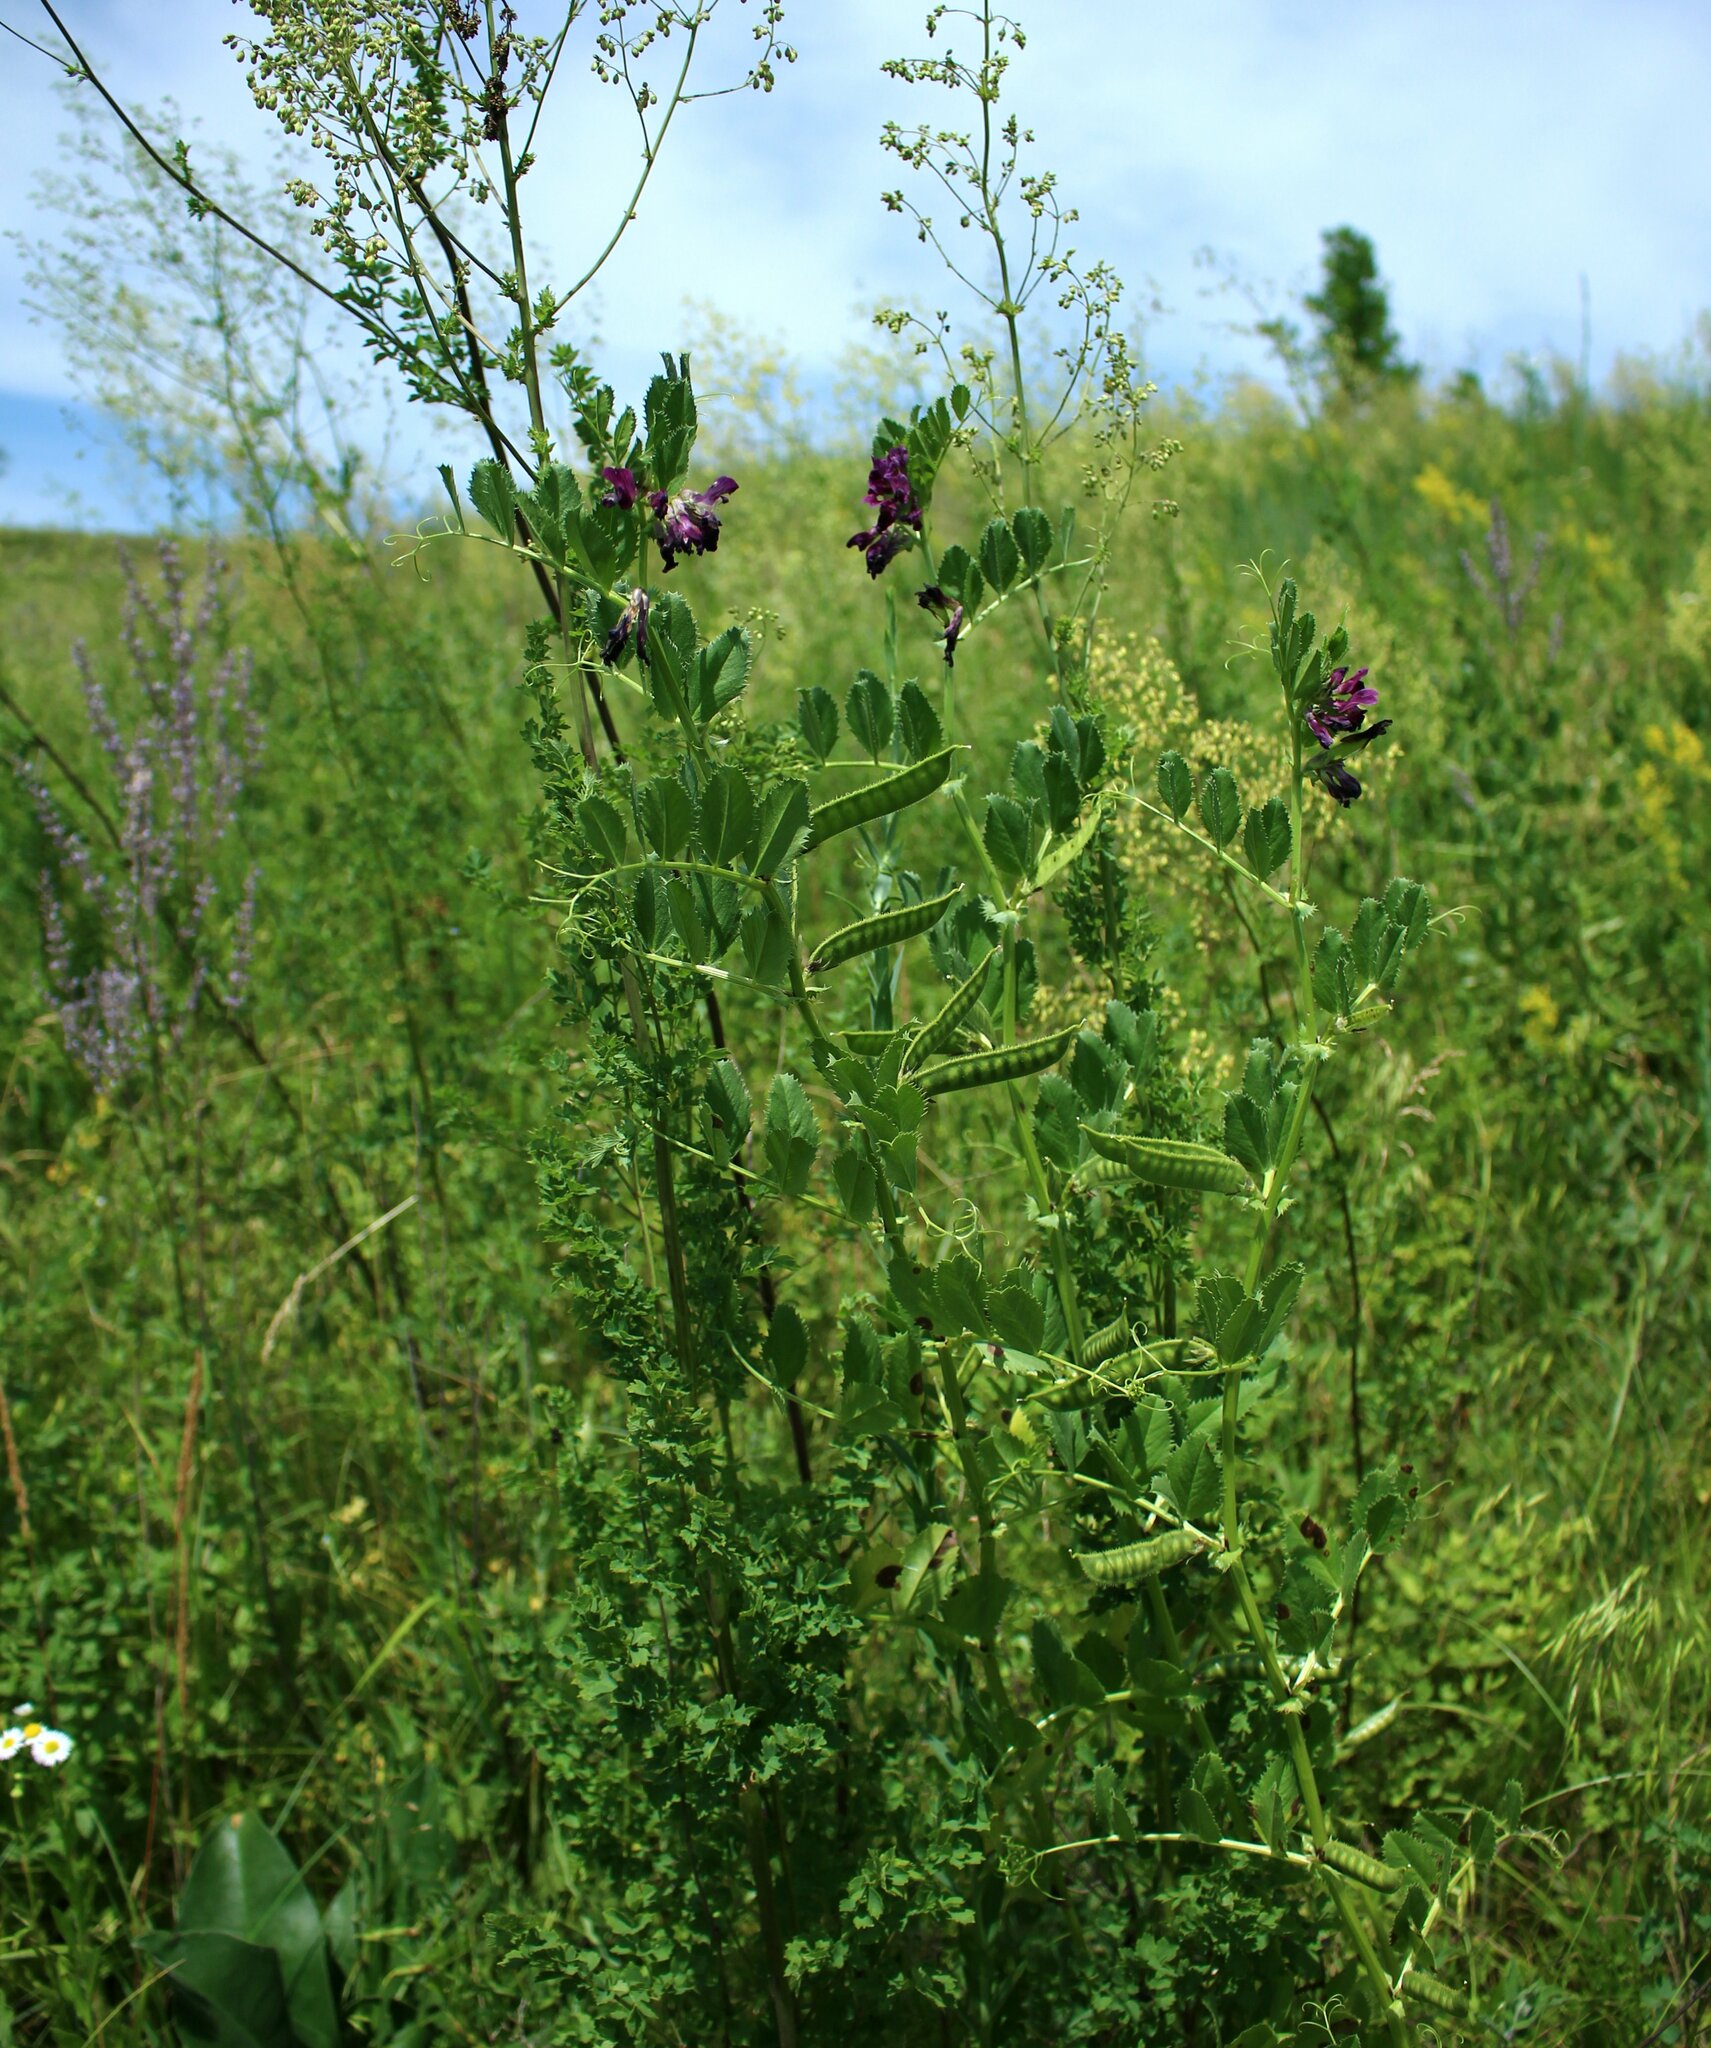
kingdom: Plantae
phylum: Tracheophyta
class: Magnoliopsida
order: Fabales
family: Fabaceae
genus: Vicia
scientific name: Vicia serratifolia
